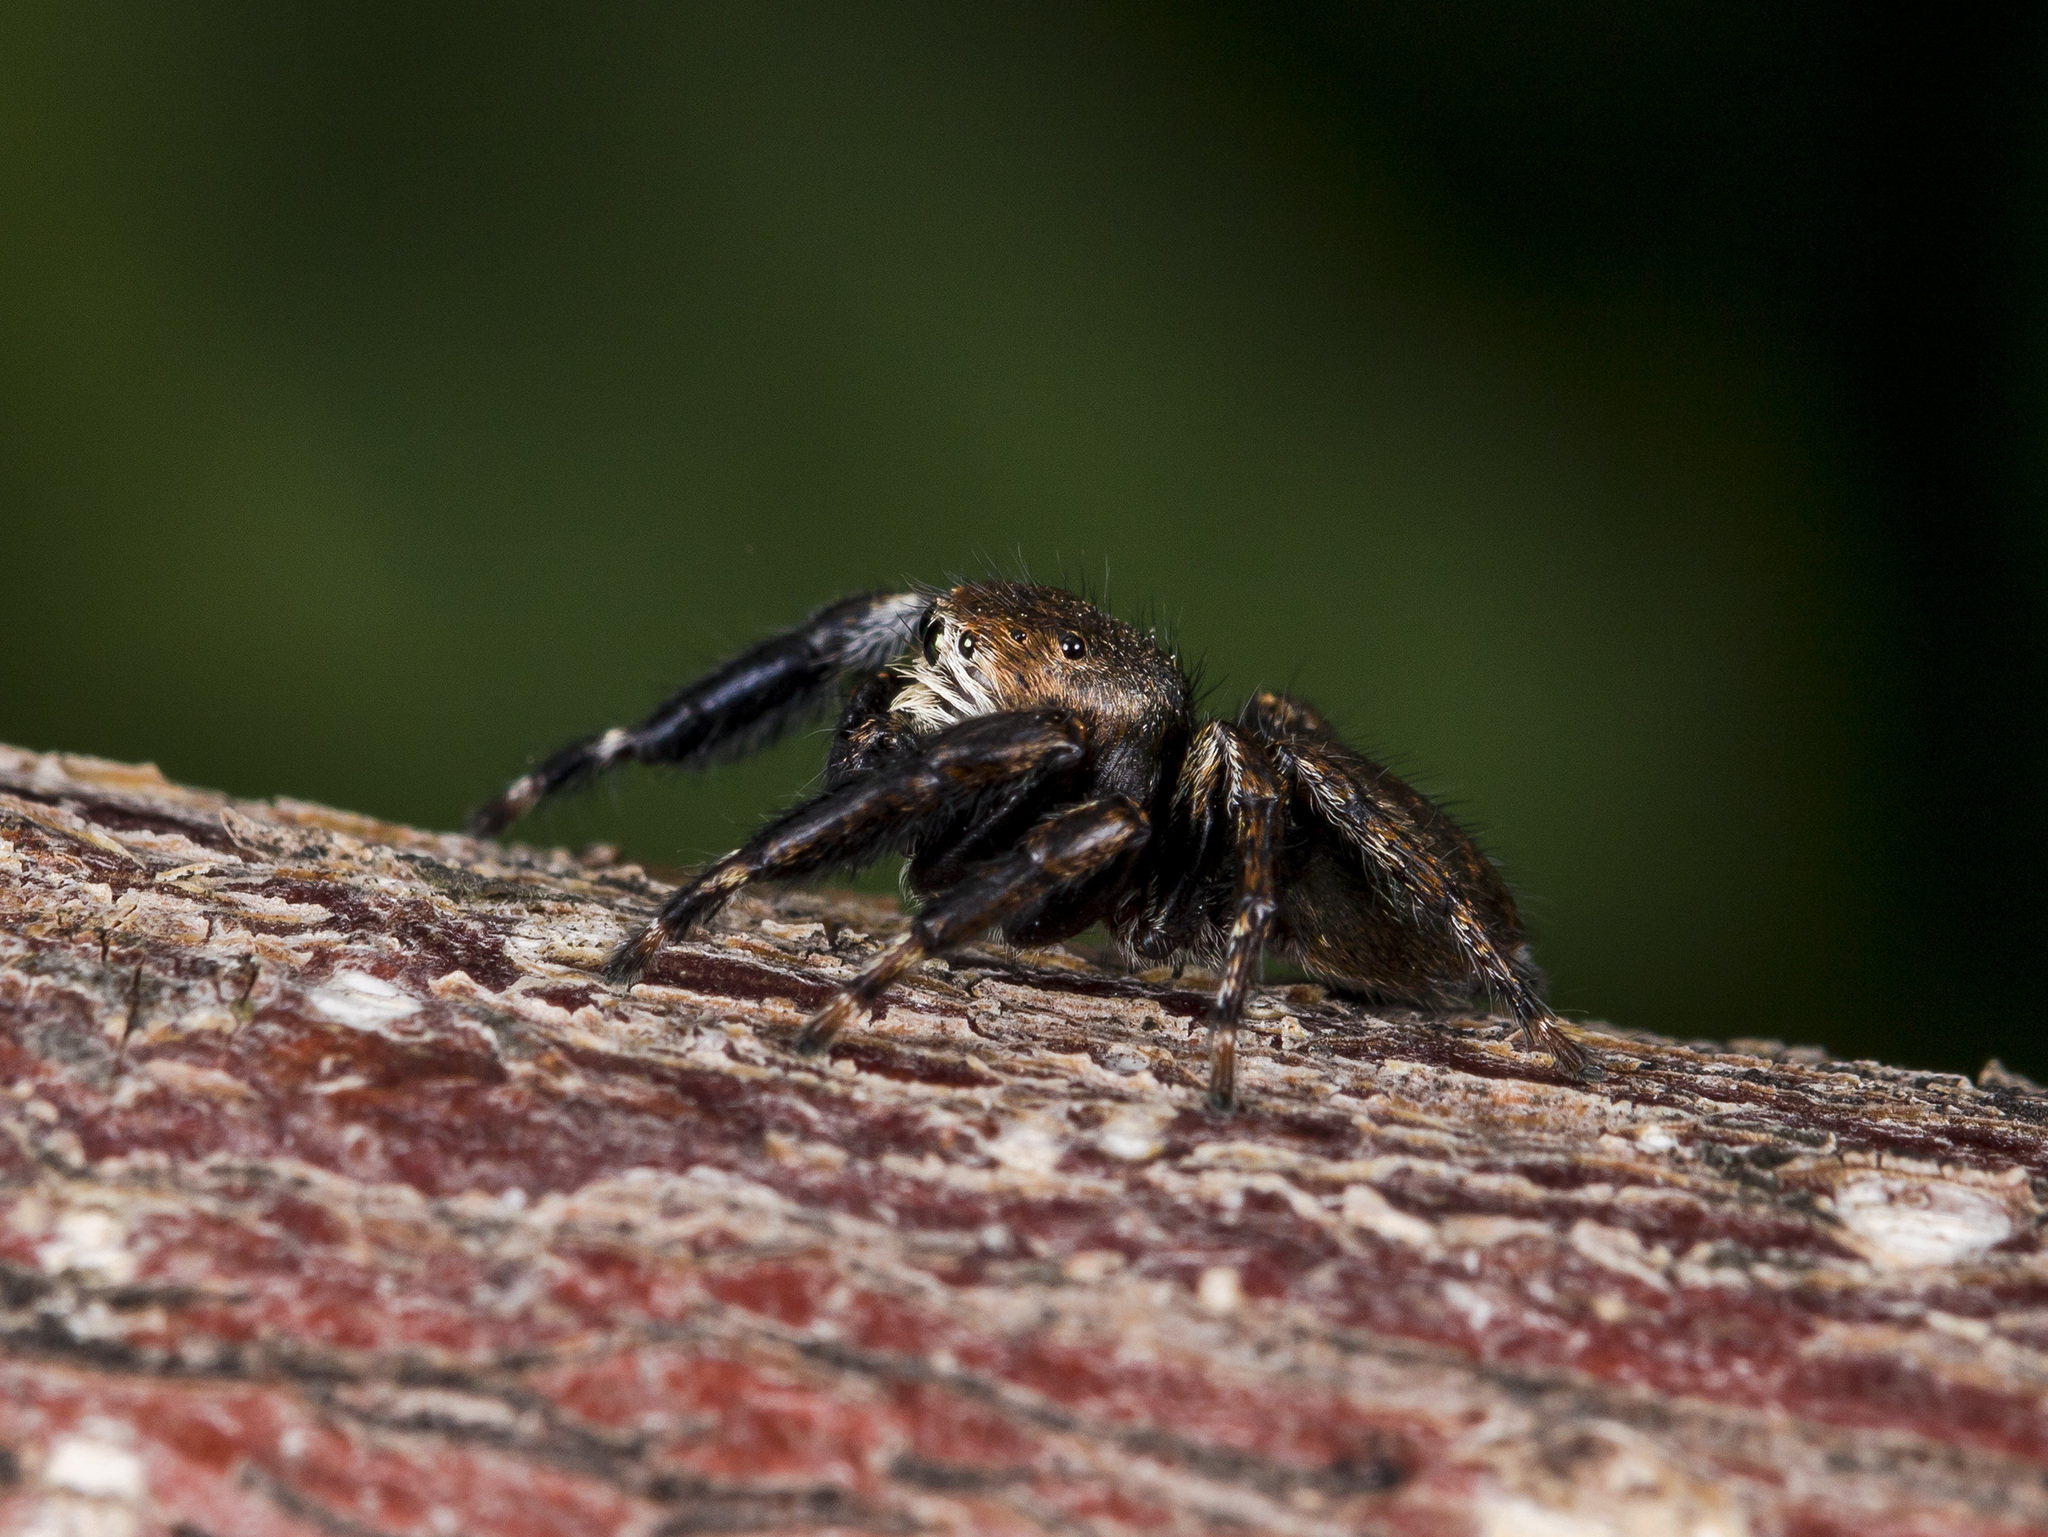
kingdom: Animalia
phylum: Arthropoda
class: Arachnida
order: Araneae
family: Salticidae
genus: Evarcha
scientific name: Evarcha arcuata
